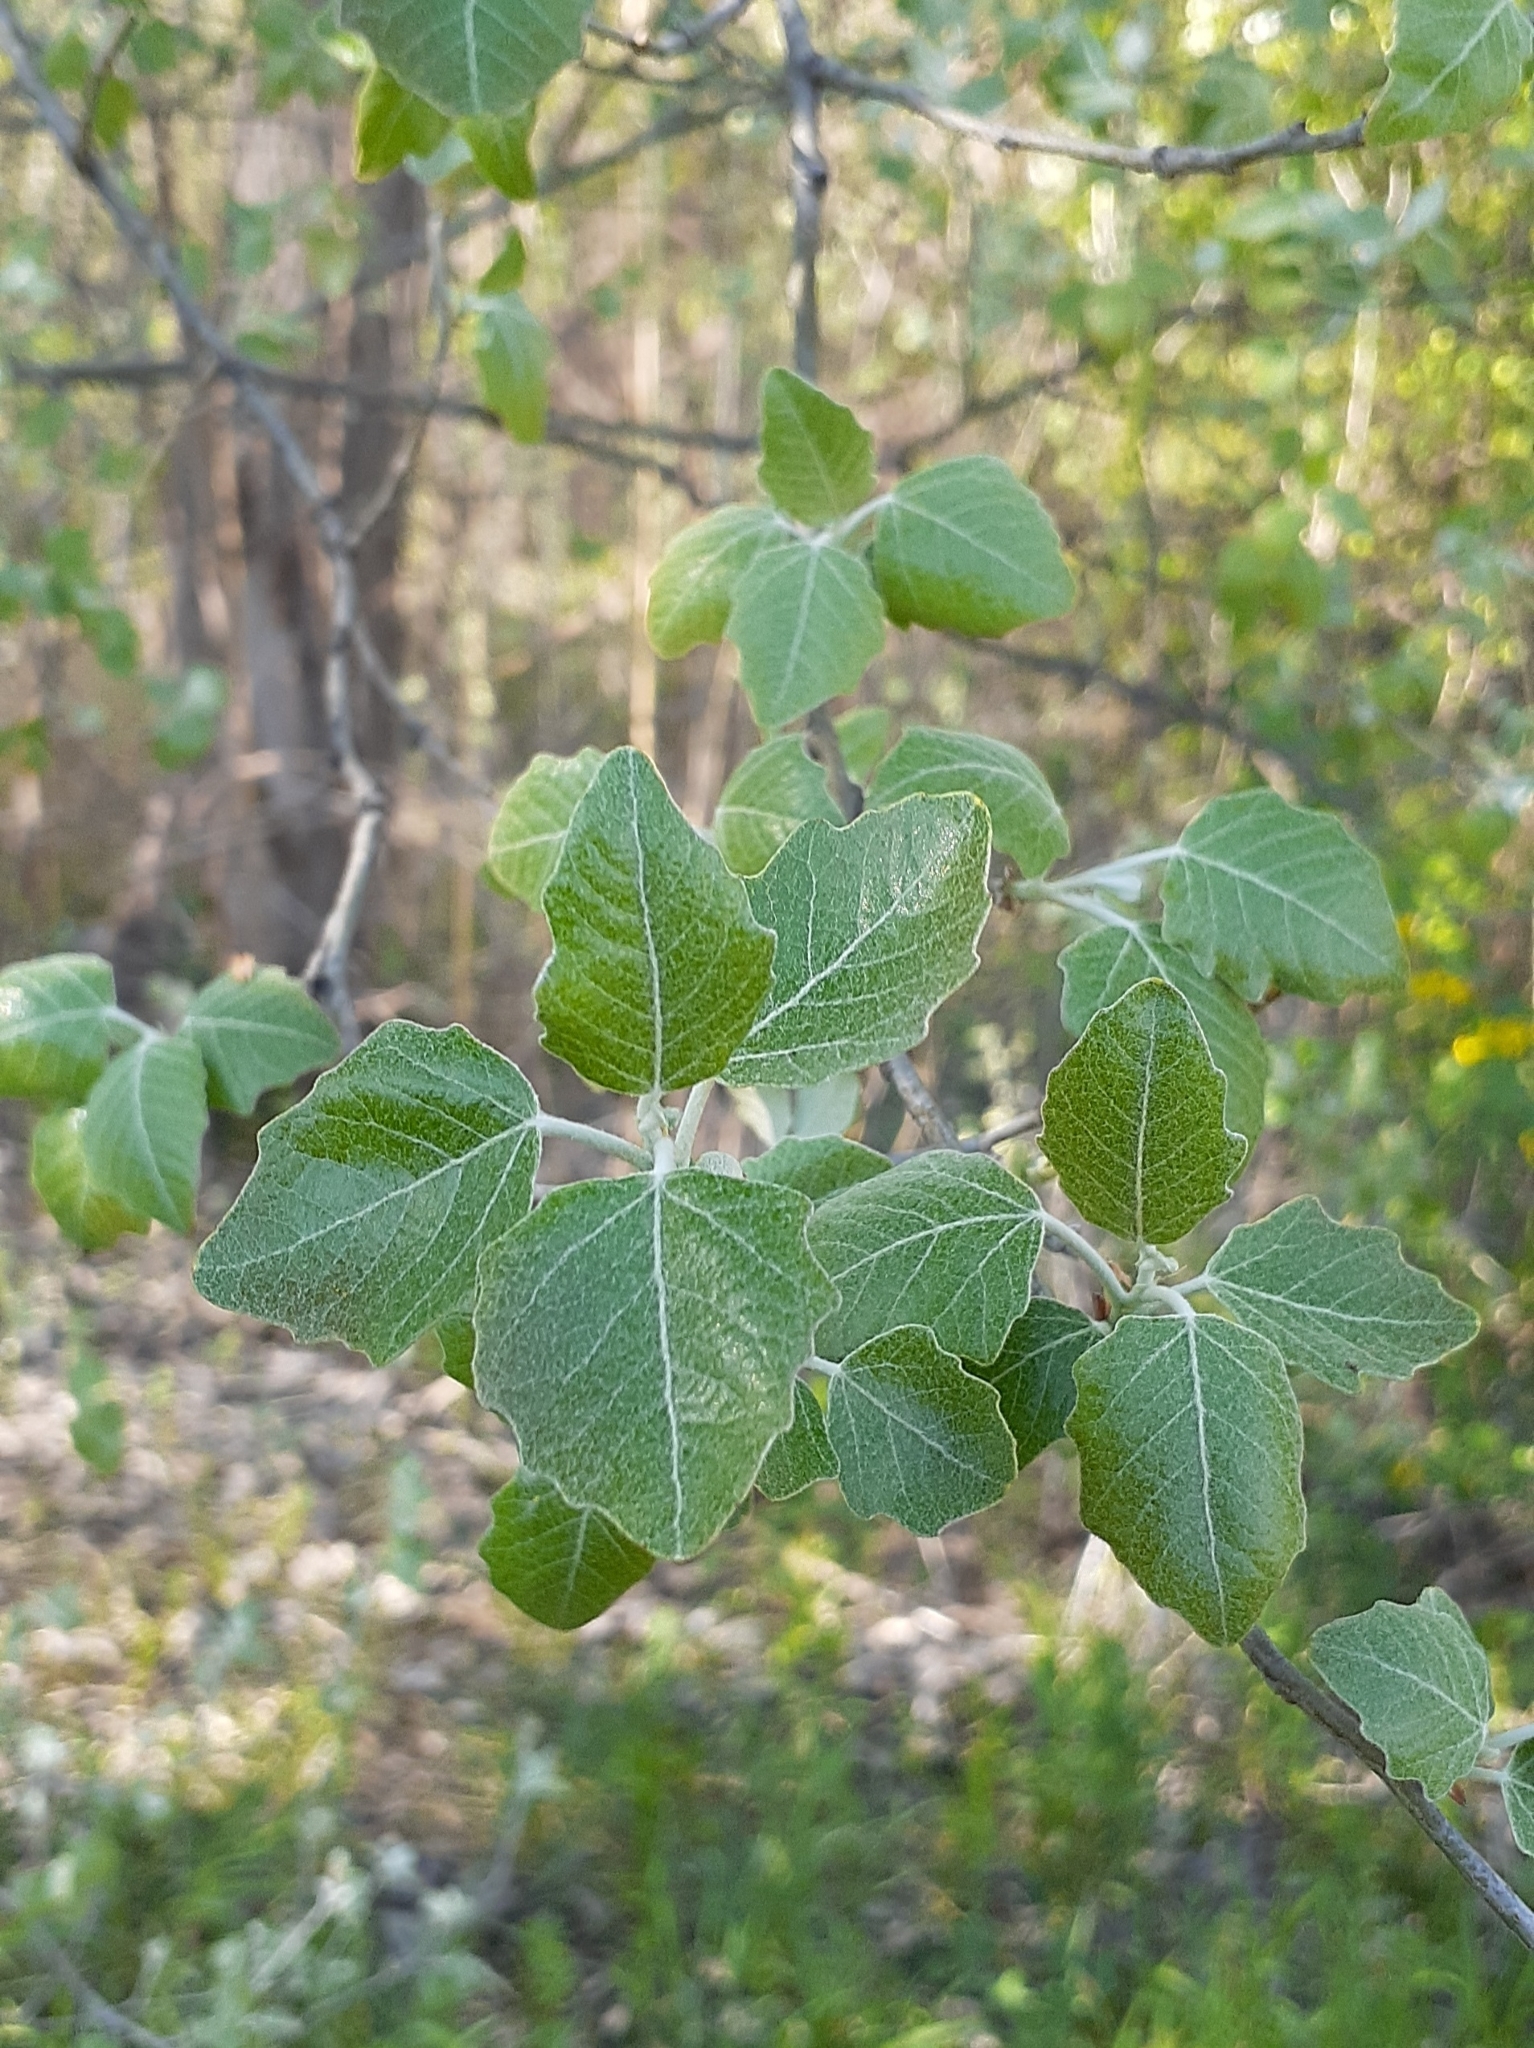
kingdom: Plantae
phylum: Tracheophyta
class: Magnoliopsida
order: Malpighiales
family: Salicaceae
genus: Populus
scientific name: Populus alba
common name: White poplar
